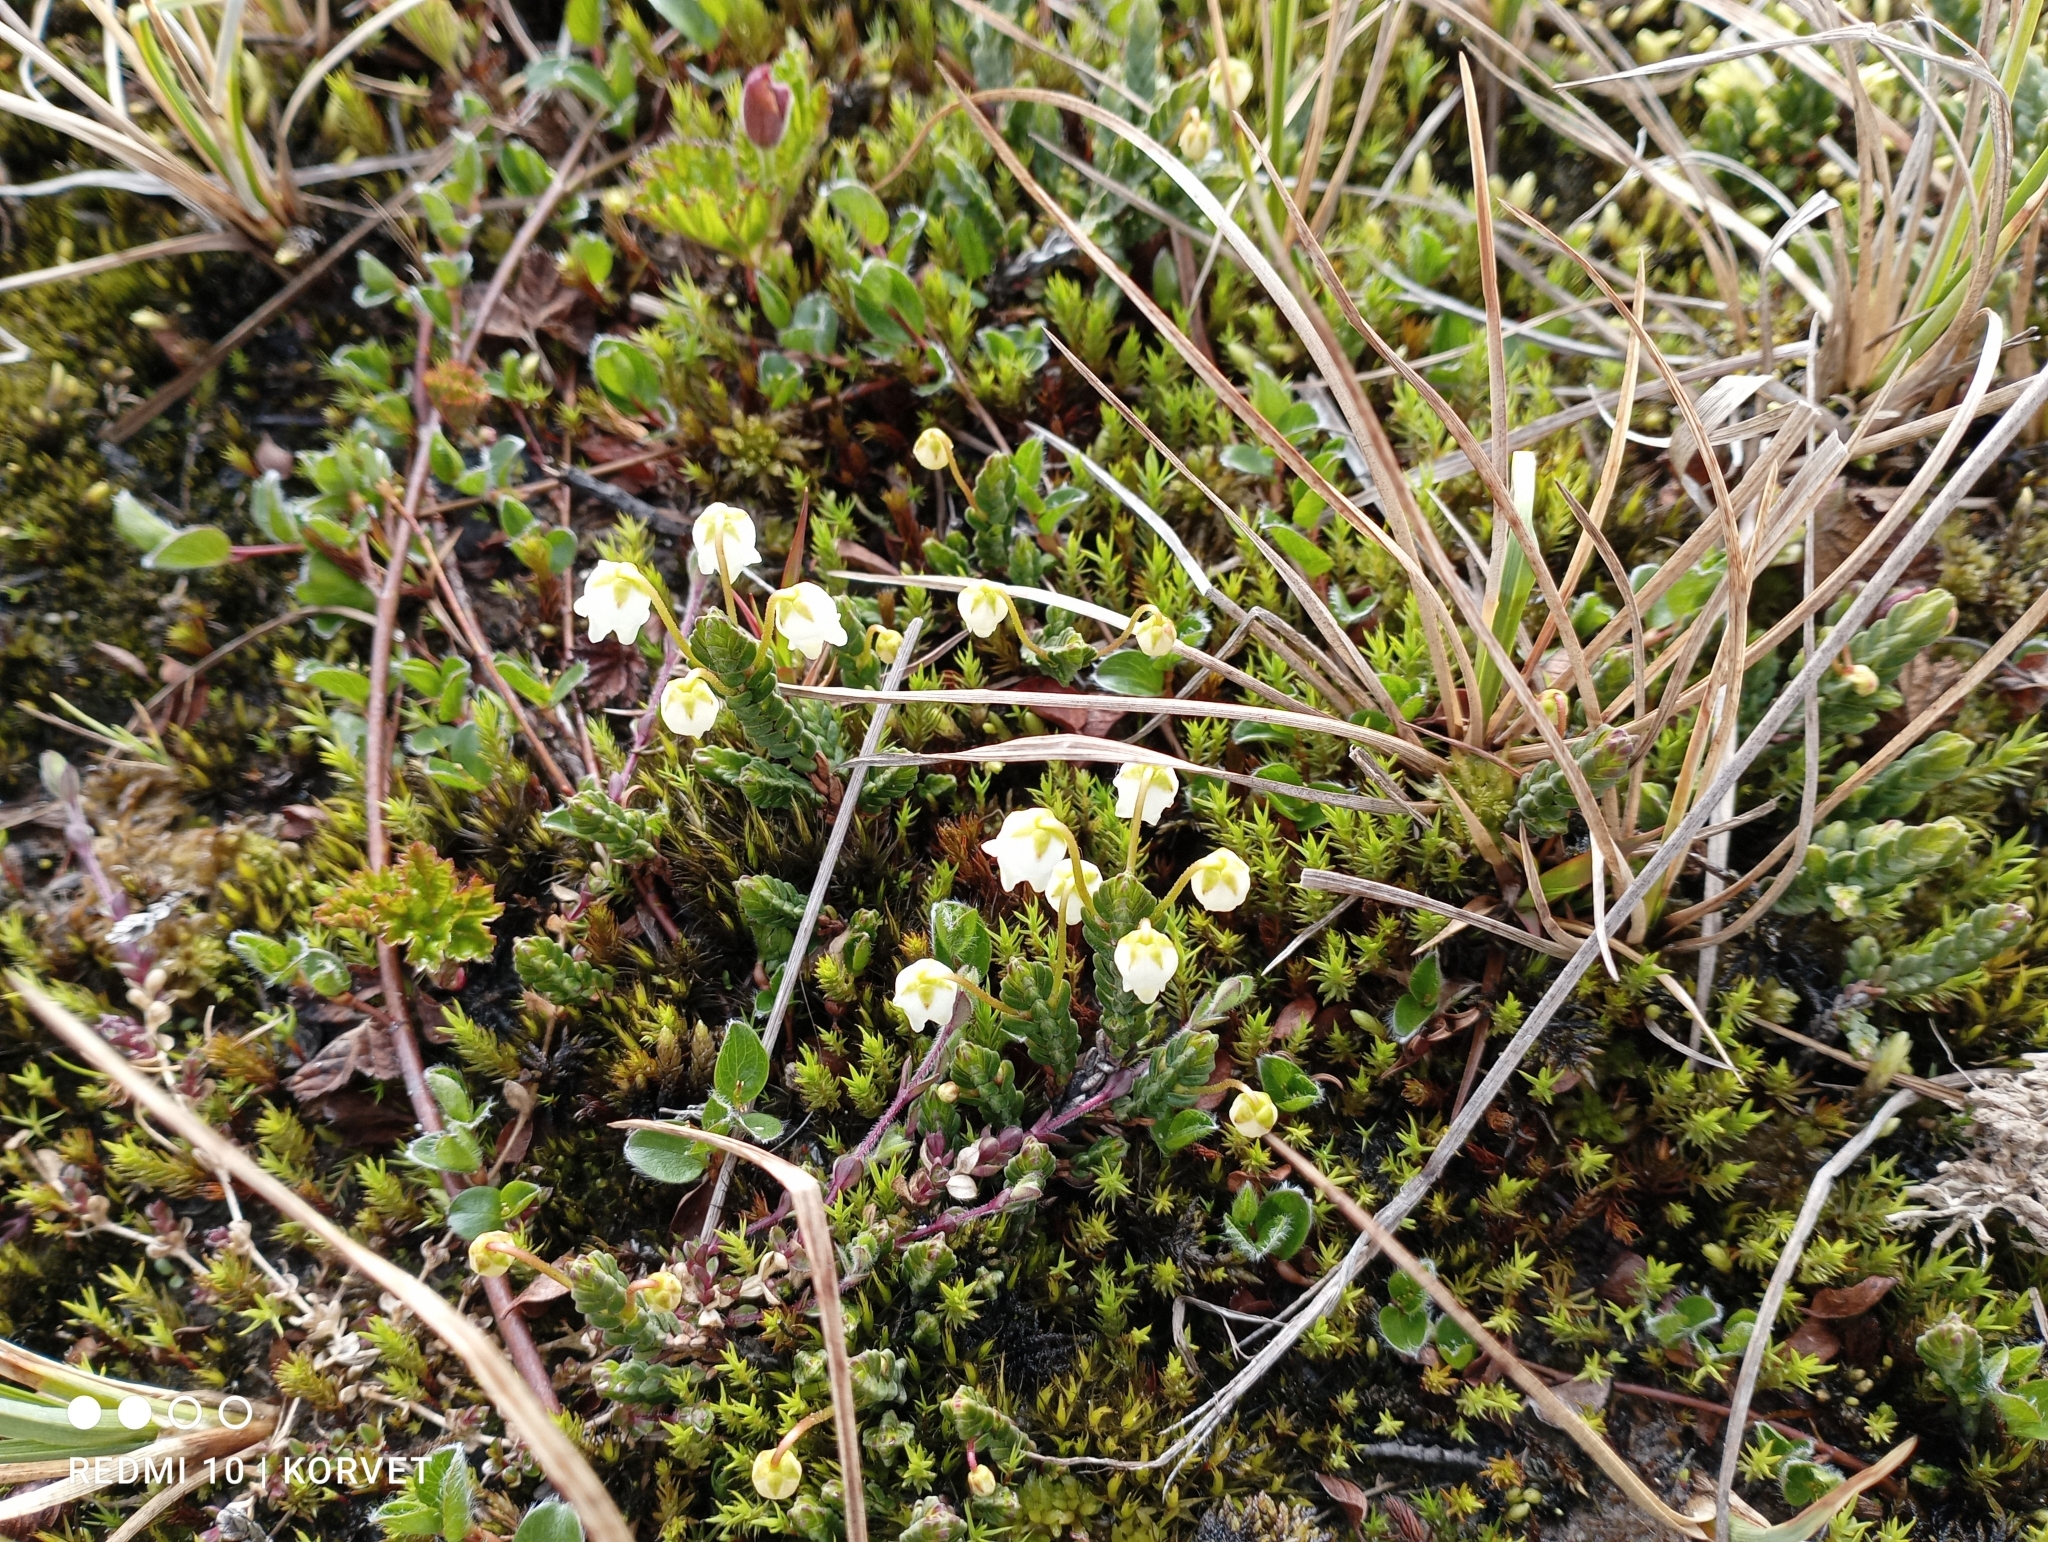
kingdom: Plantae
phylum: Tracheophyta
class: Magnoliopsida
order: Ericales
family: Ericaceae
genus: Cassiope
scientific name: Cassiope tetragona
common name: Arctic bell heather
